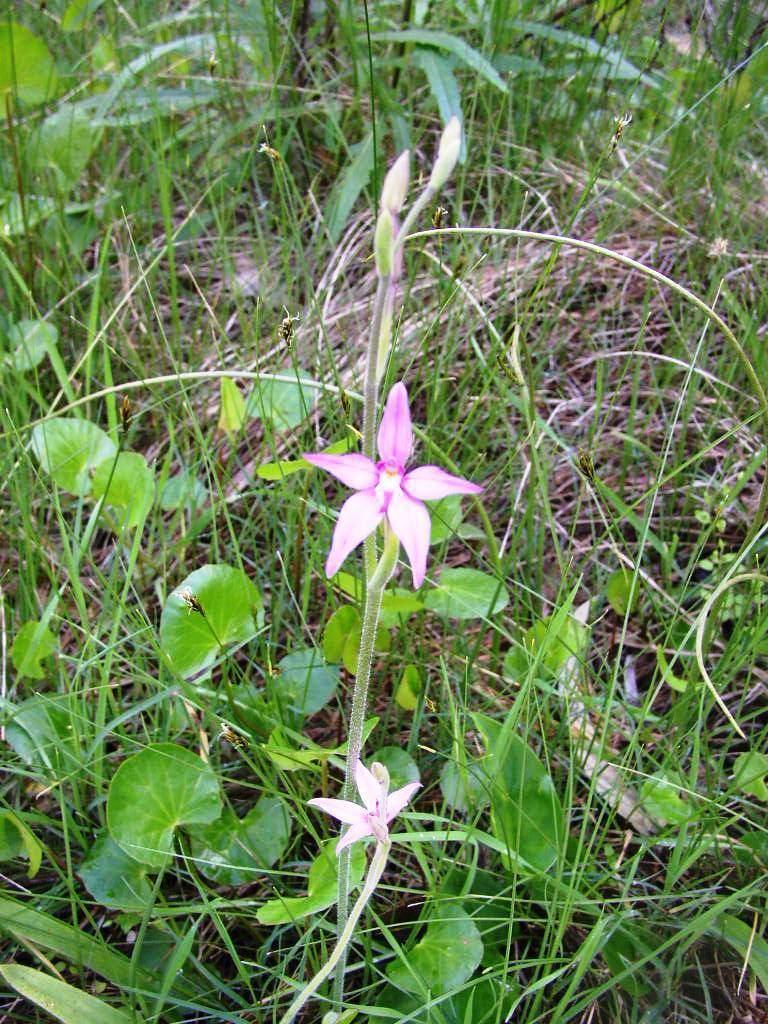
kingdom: Plantae
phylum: Tracheophyta
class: Liliopsida
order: Asparagales
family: Orchidaceae
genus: Caladenia
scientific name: Caladenia latifolia
